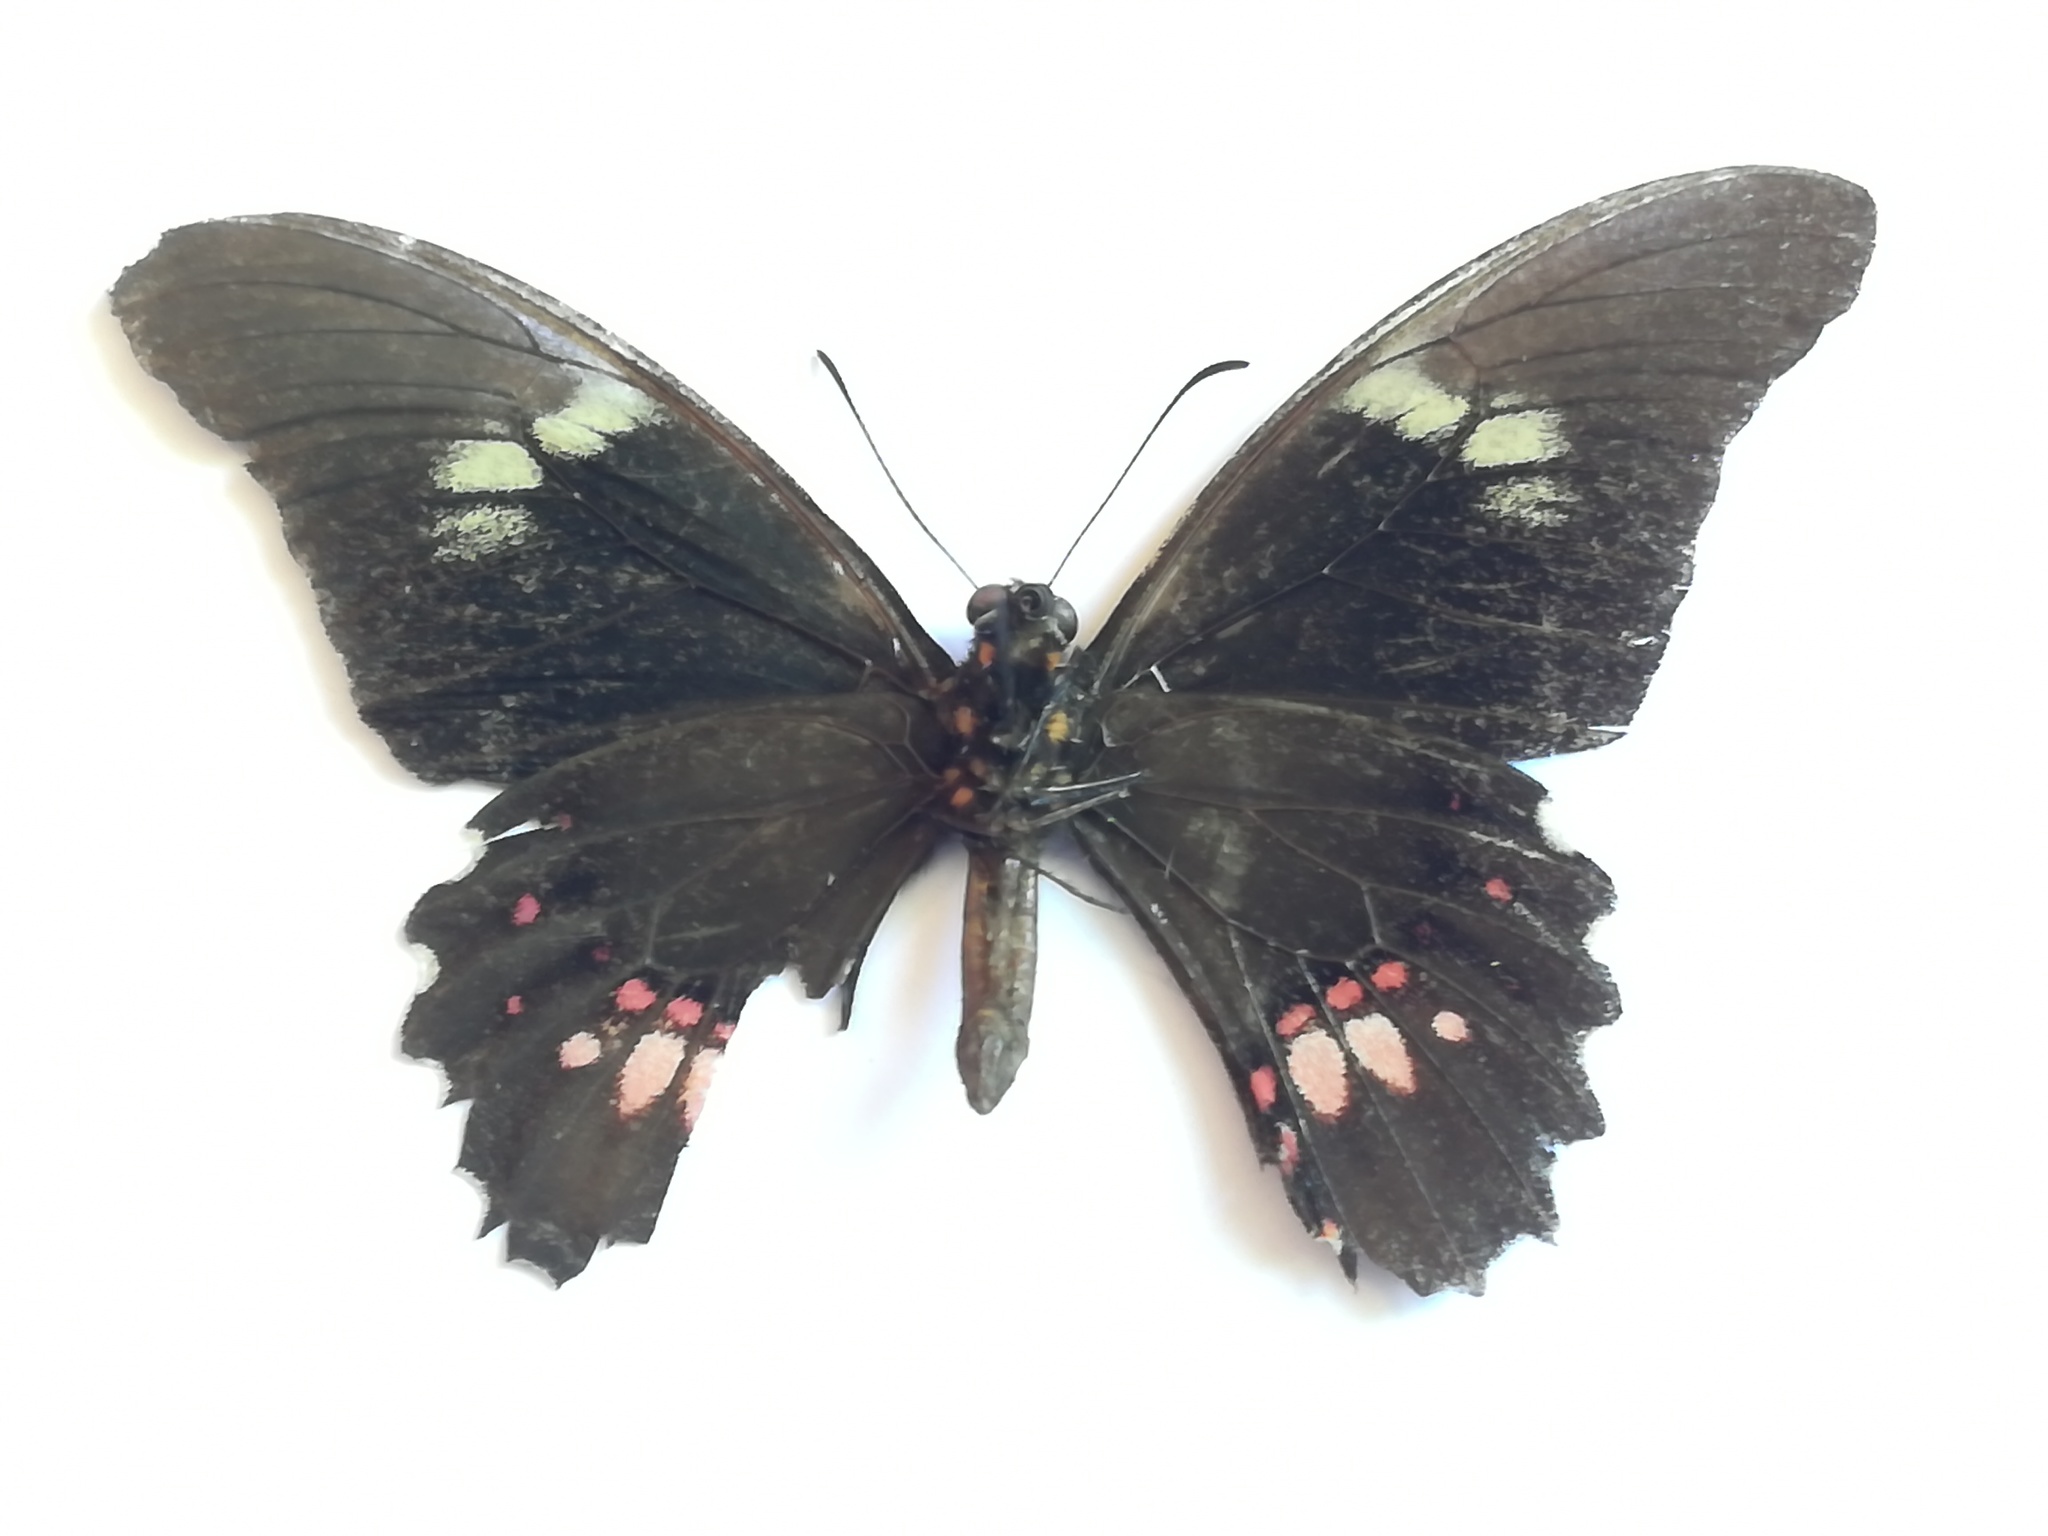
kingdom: Animalia
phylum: Arthropoda
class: Insecta
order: Lepidoptera
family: Papilionidae
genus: Papilio
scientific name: Papilio anchisiades
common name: Idaes swallowtail
